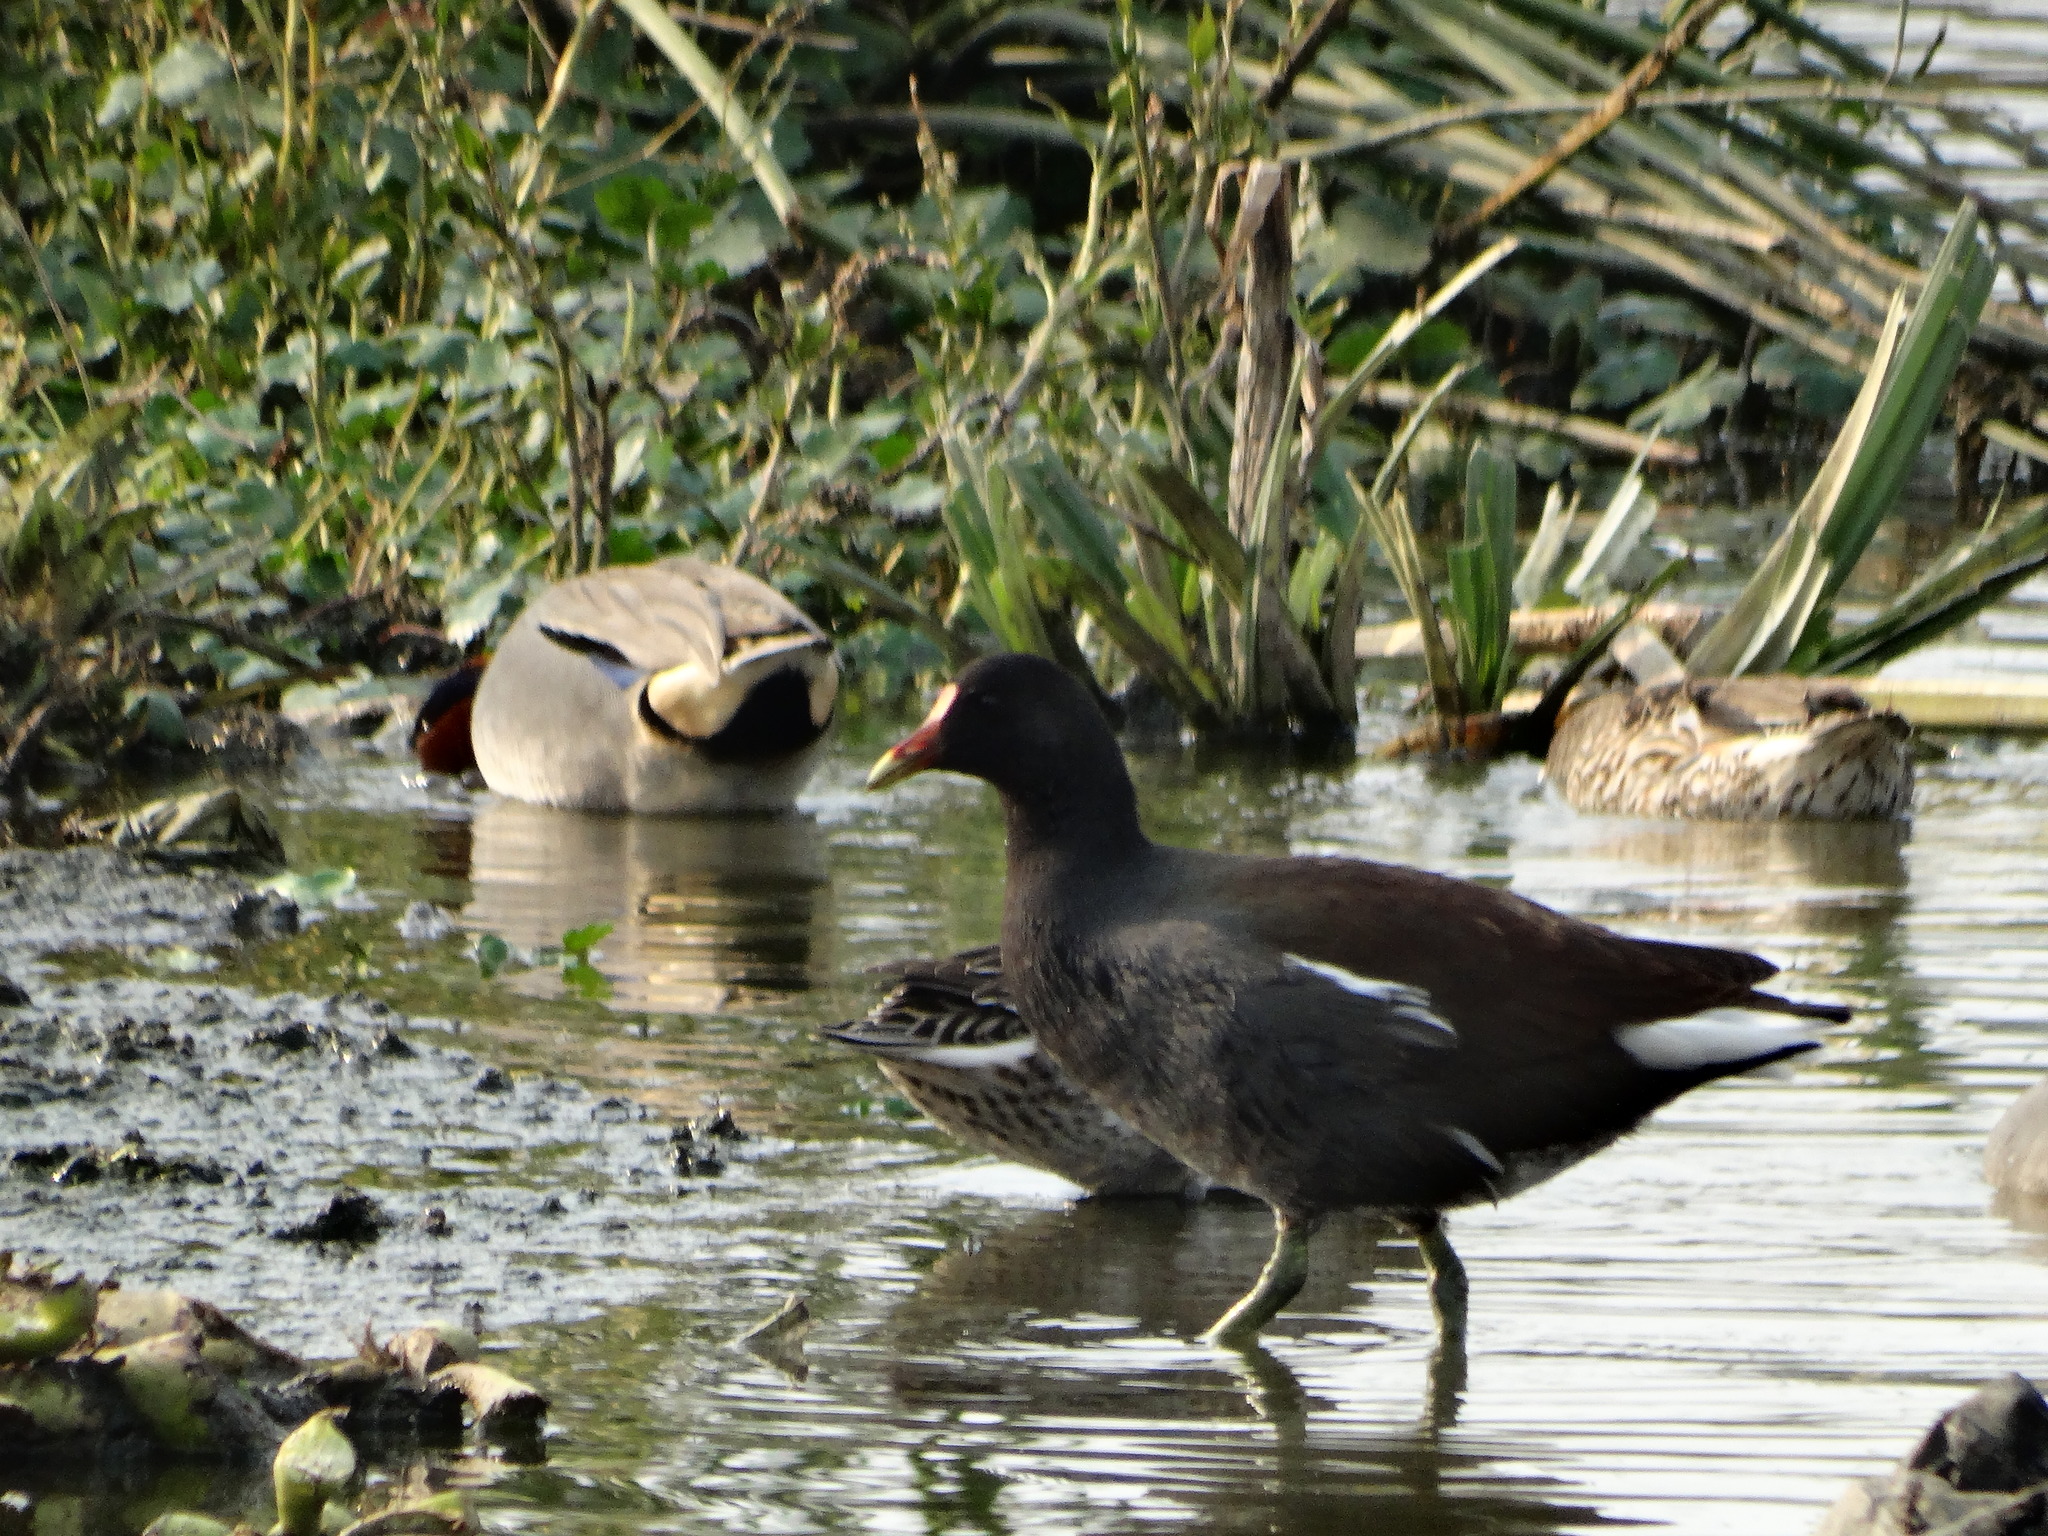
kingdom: Animalia
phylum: Chordata
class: Aves
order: Gruiformes
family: Rallidae
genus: Gallinula
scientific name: Gallinula chloropus
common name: Common moorhen
